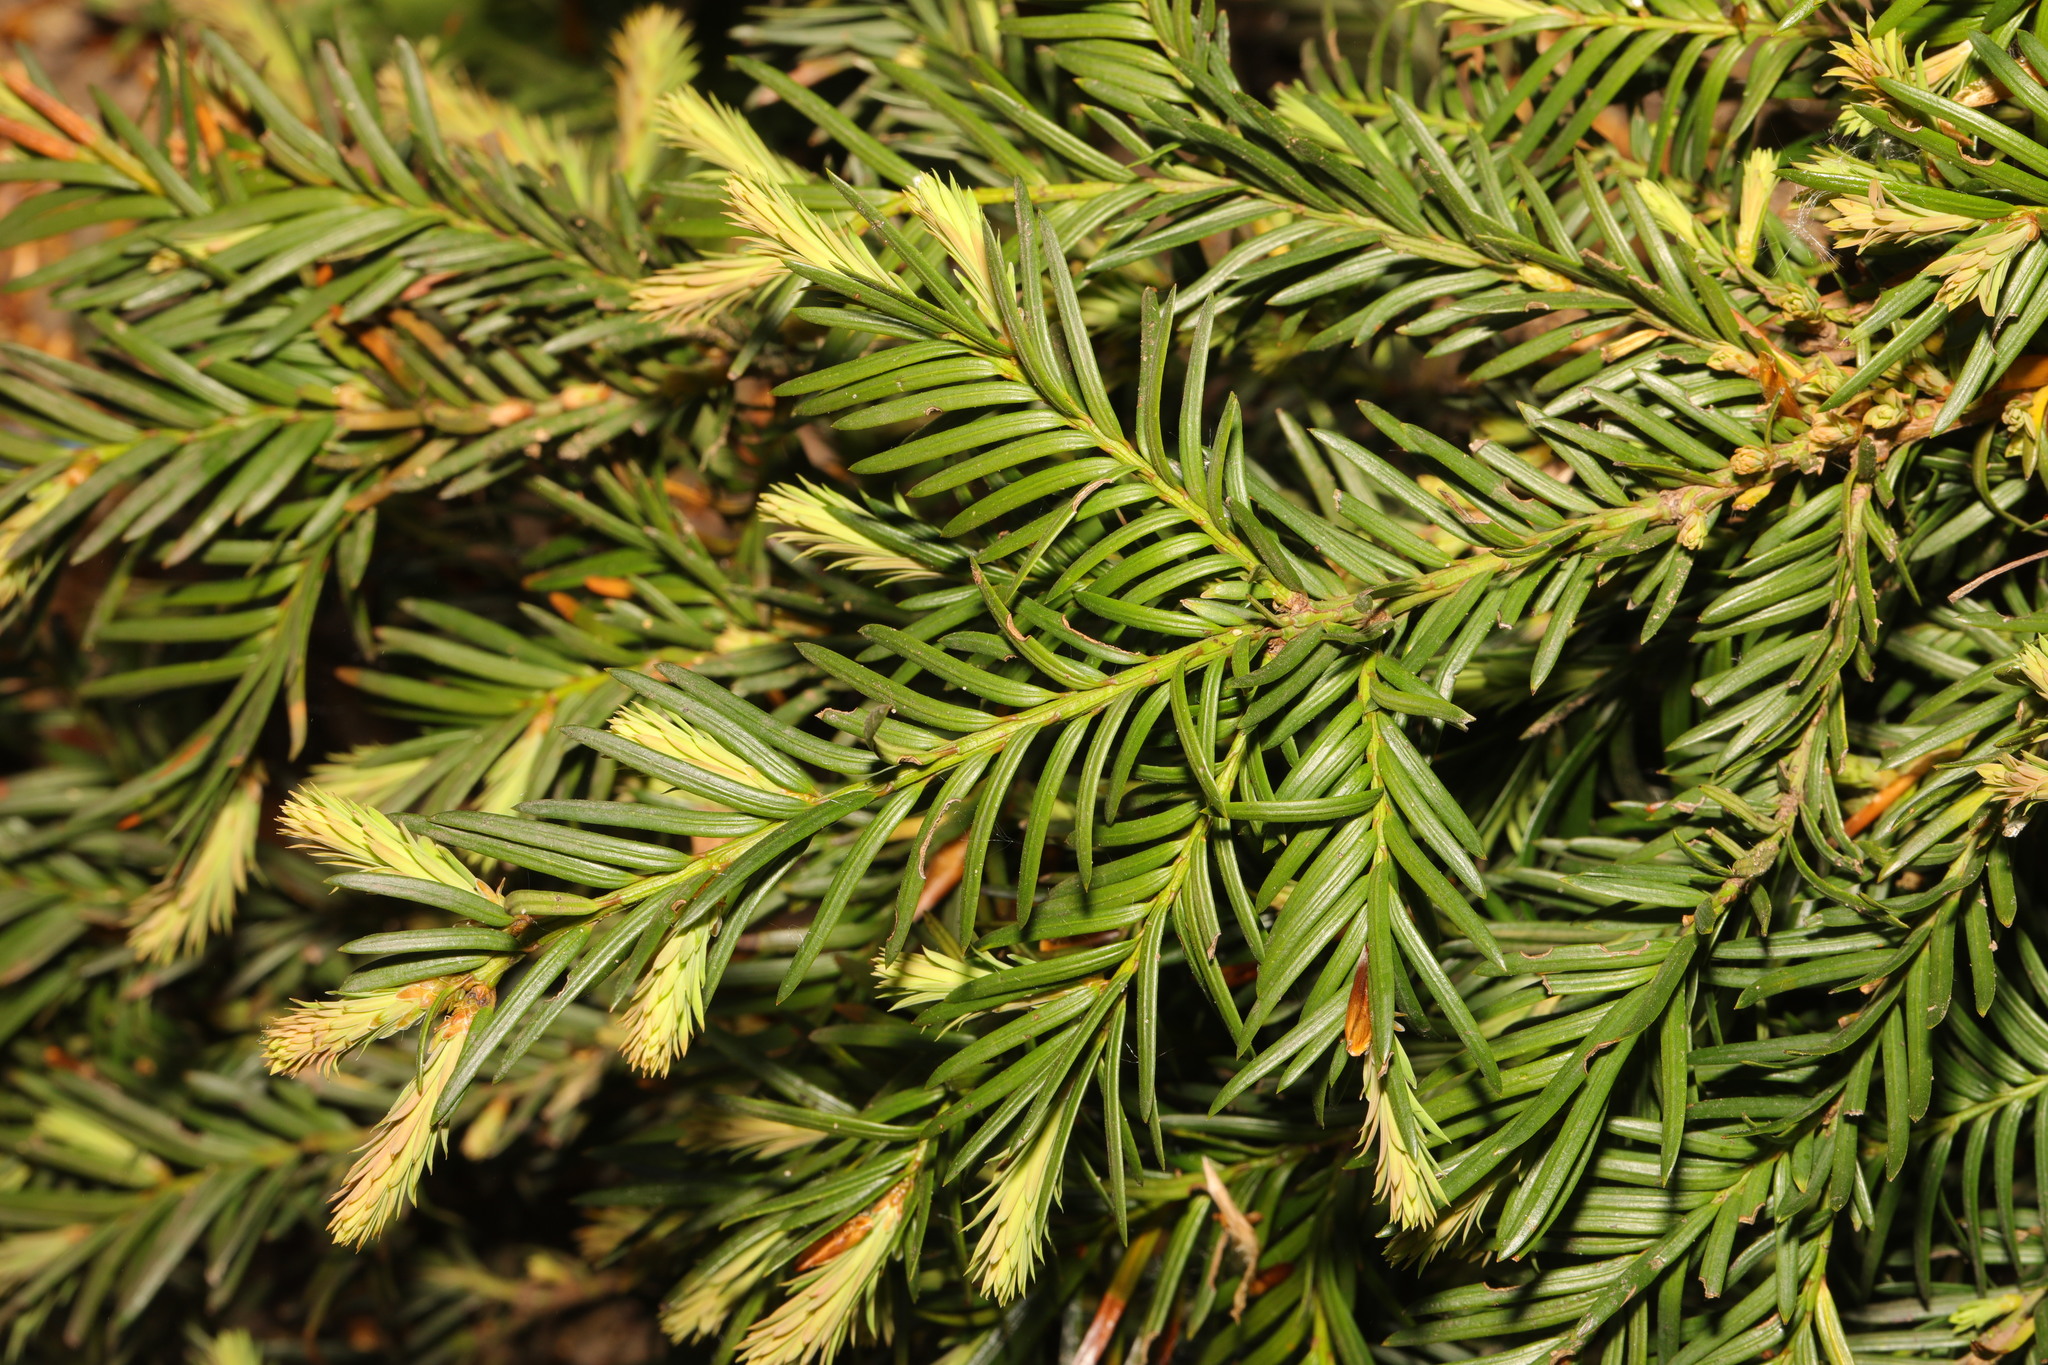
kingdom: Plantae
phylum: Tracheophyta
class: Pinopsida
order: Pinales
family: Taxaceae
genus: Taxus
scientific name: Taxus baccata
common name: Yew
